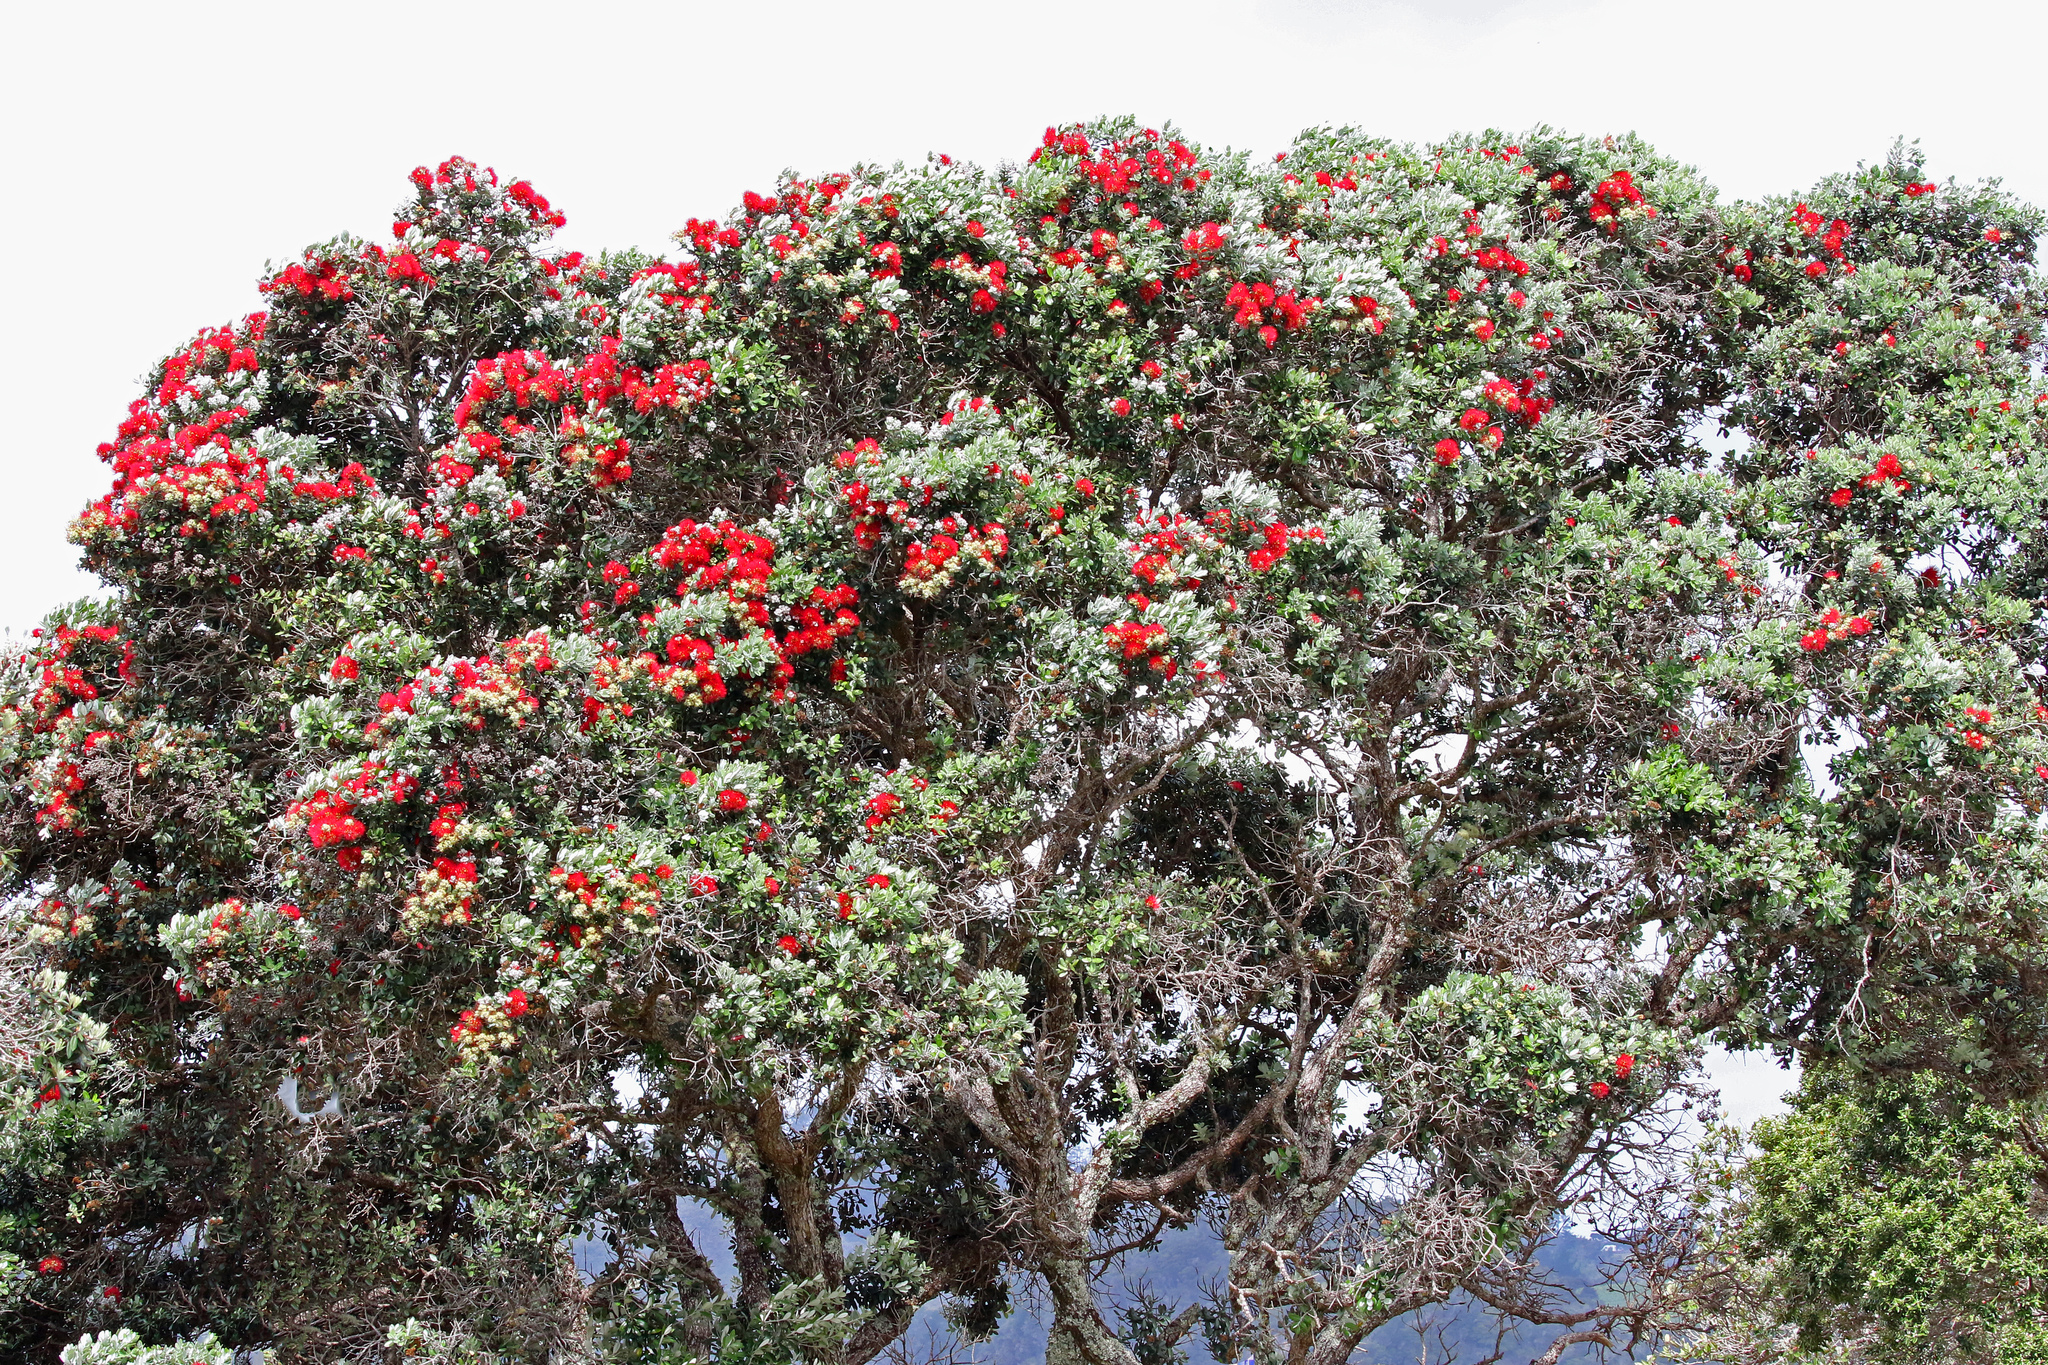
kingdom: Plantae
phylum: Tracheophyta
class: Magnoliopsida
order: Myrtales
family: Myrtaceae
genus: Metrosideros
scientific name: Metrosideros excelsa
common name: New zealand christmastree
